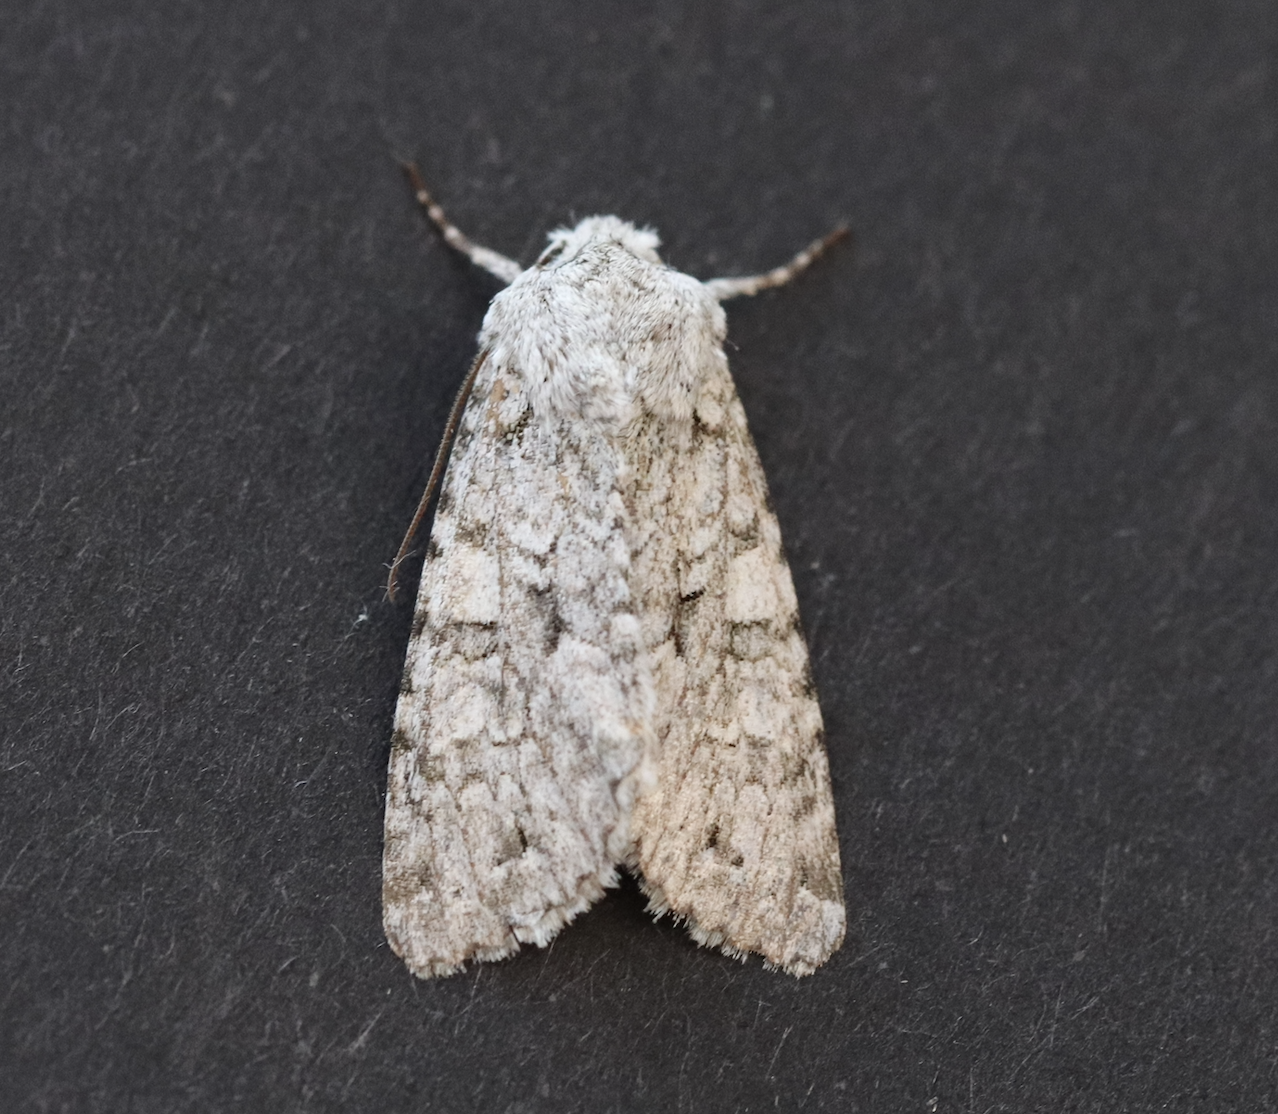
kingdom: Animalia
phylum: Arthropoda
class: Insecta
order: Lepidoptera
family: Noctuidae
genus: Antitype
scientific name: Antitype chi
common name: Grey chi
